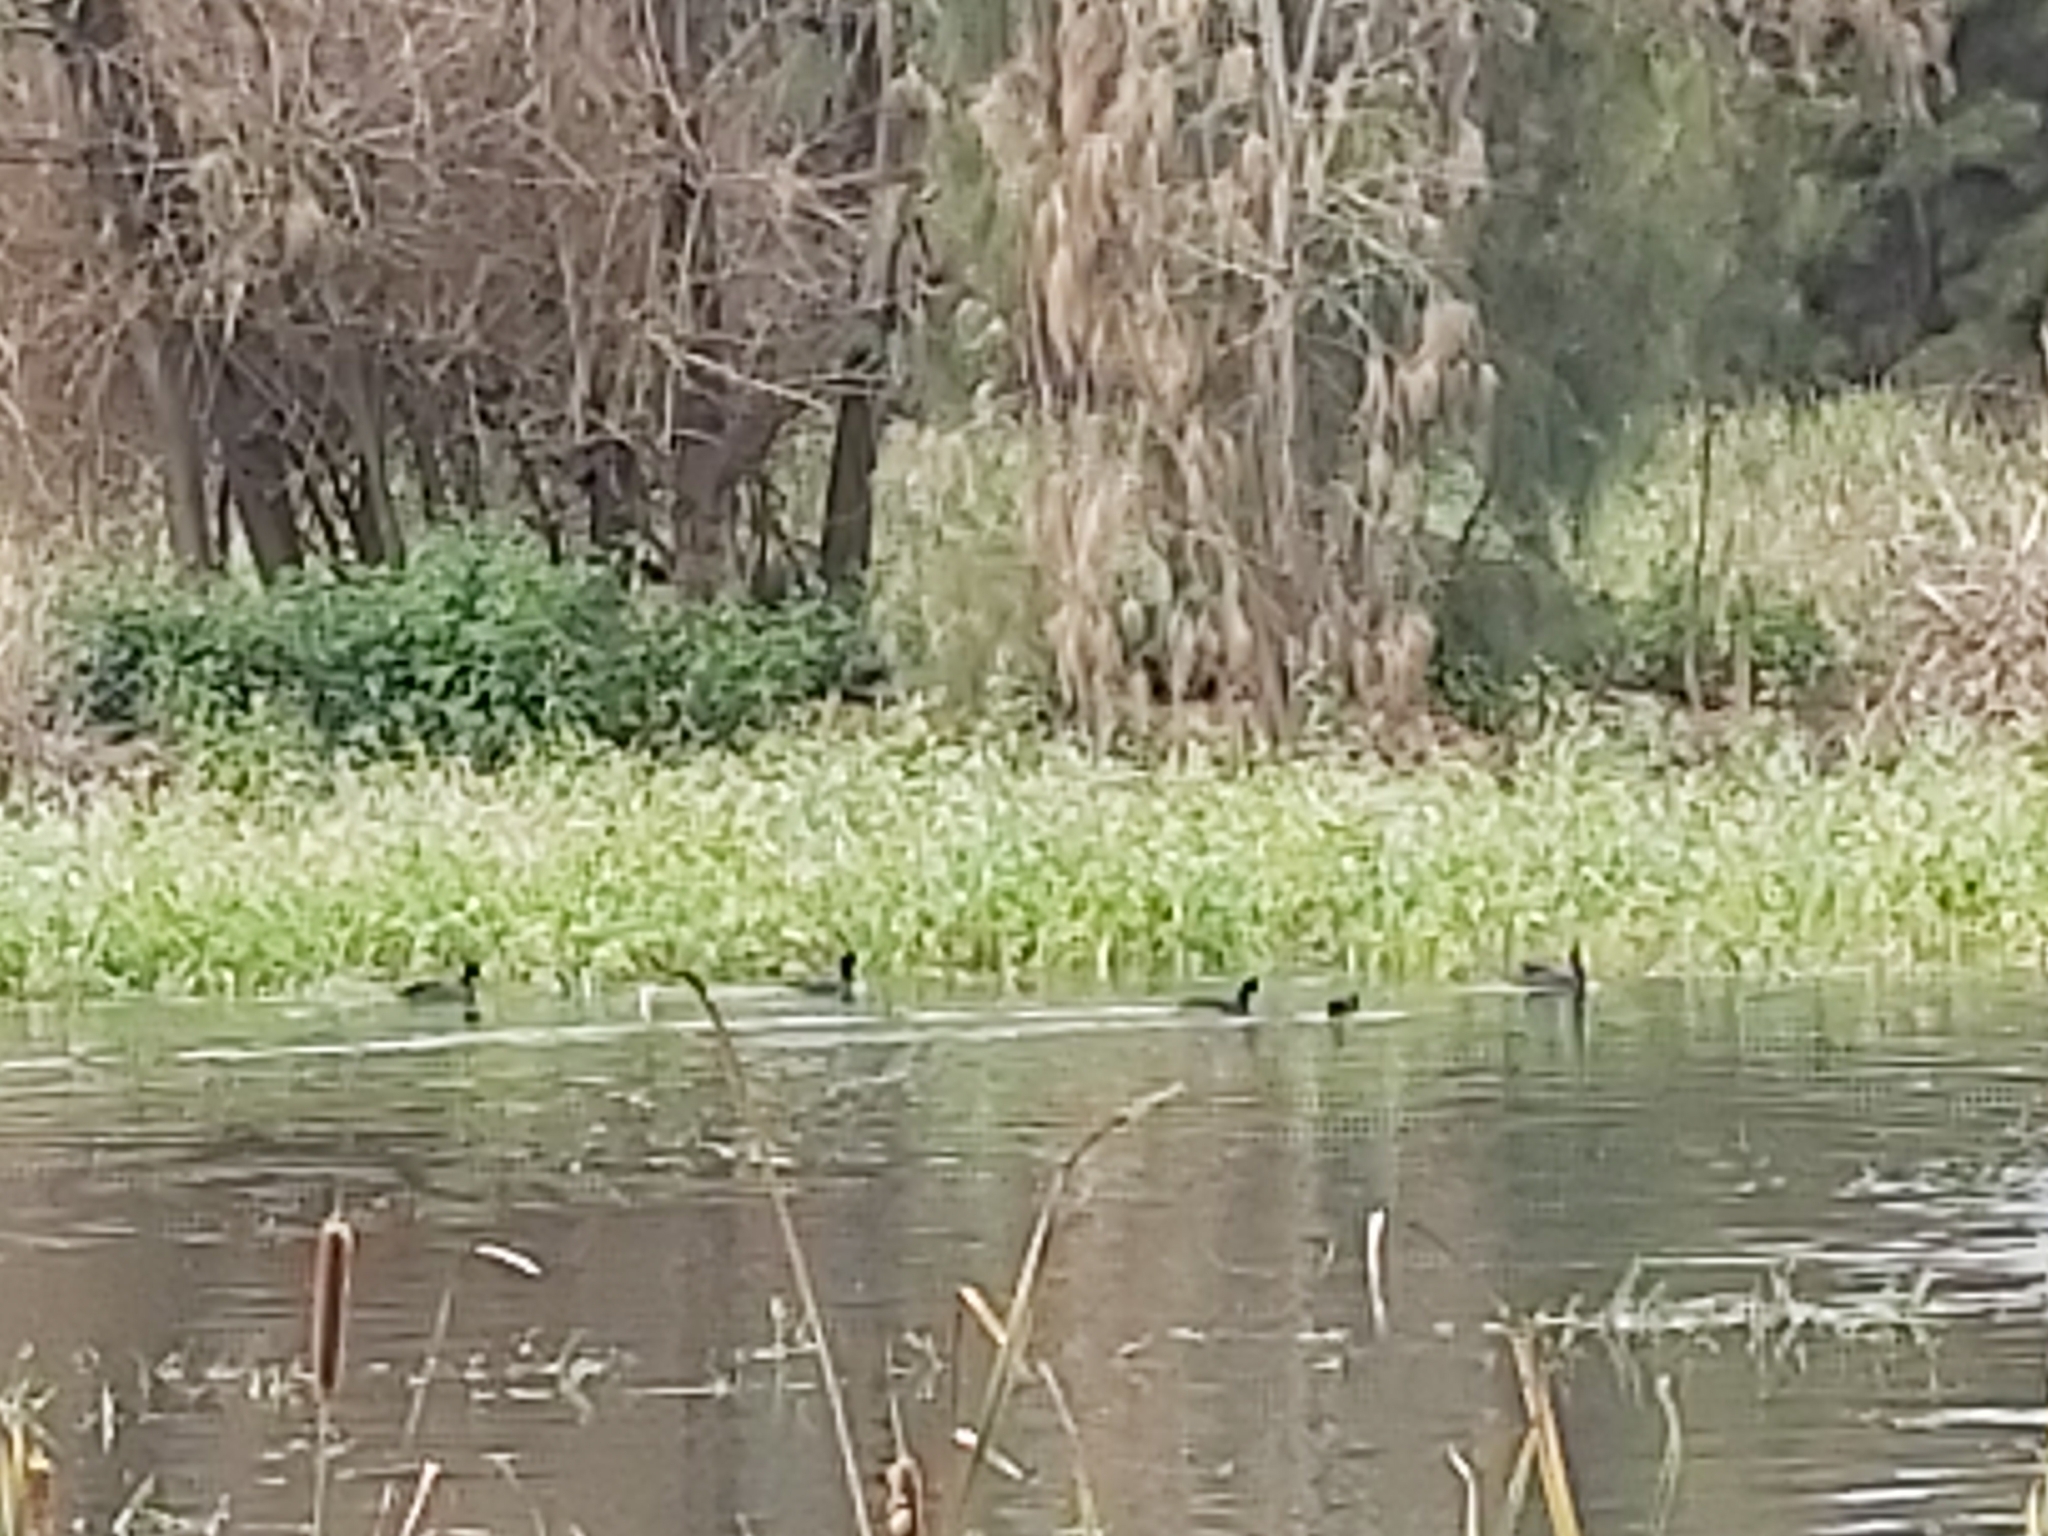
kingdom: Animalia
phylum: Chordata
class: Aves
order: Gruiformes
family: Rallidae
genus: Fulica
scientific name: Fulica atra
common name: Eurasian coot
